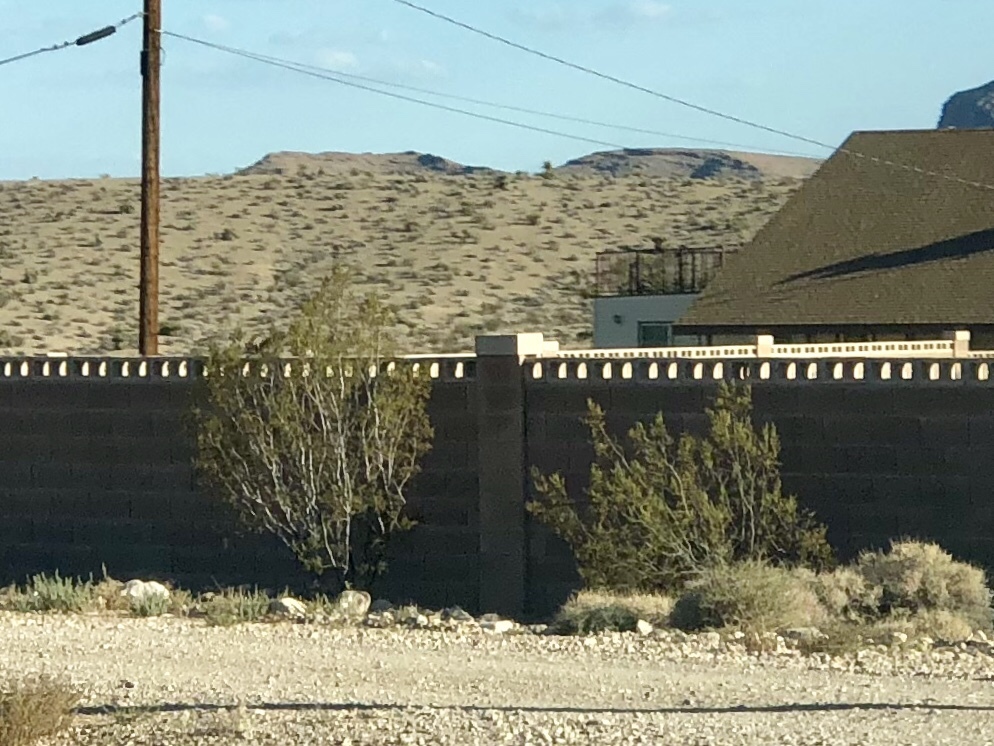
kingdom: Plantae
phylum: Tracheophyta
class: Magnoliopsida
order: Zygophyllales
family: Zygophyllaceae
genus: Larrea
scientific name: Larrea tridentata
